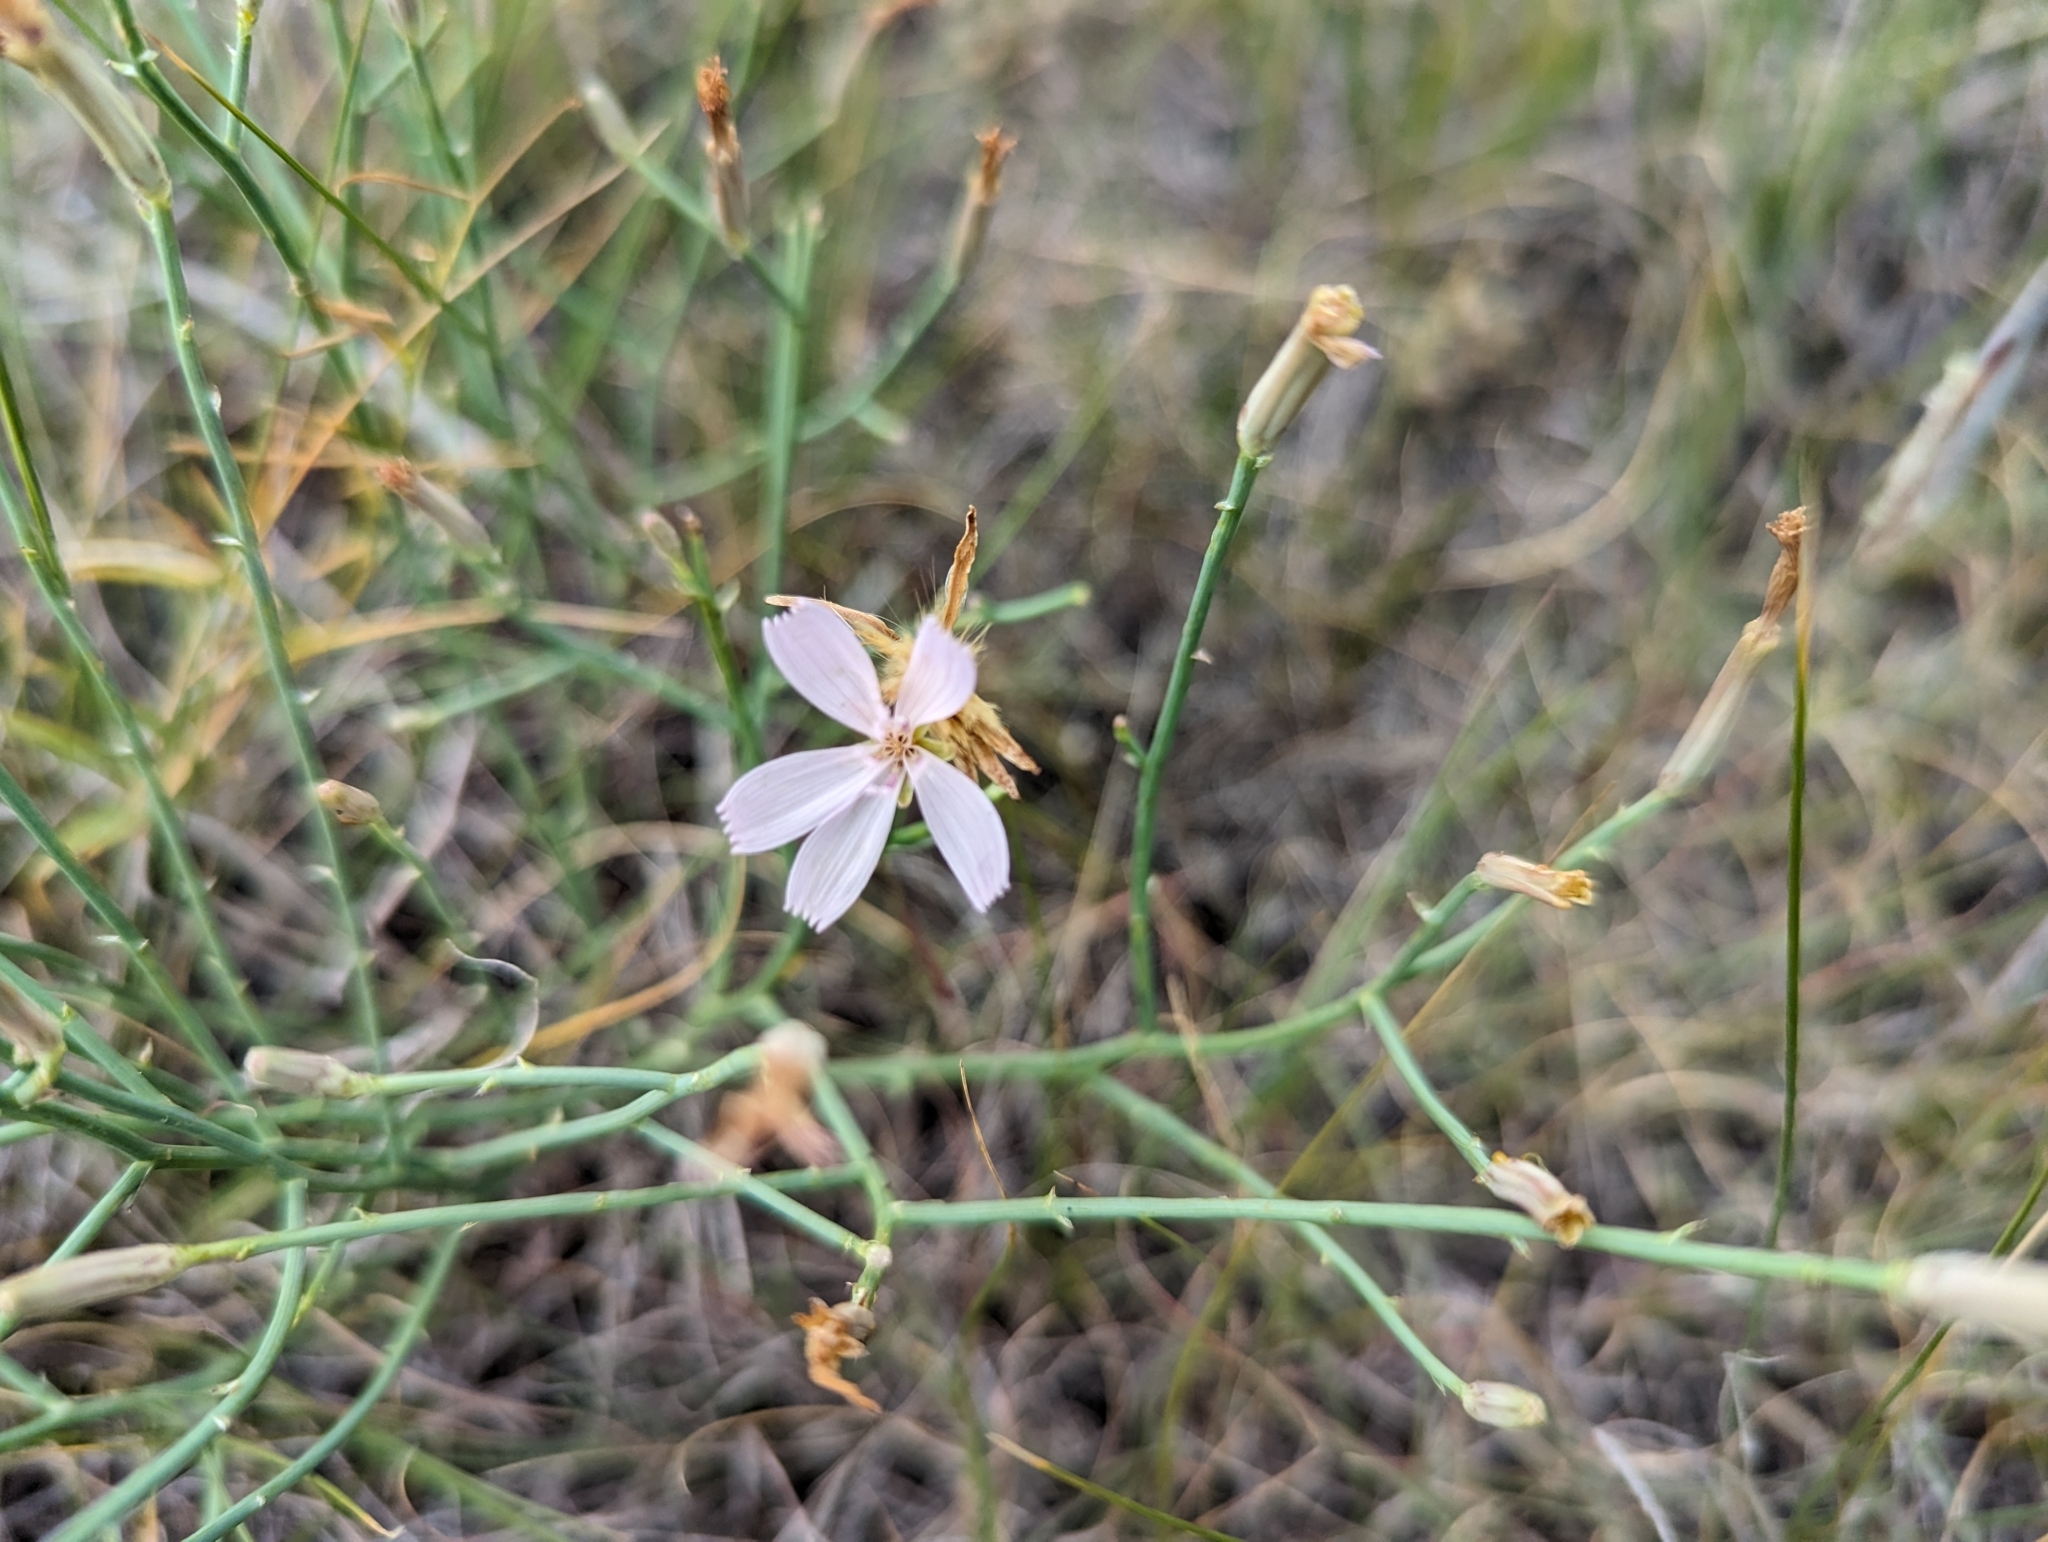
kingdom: Plantae
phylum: Tracheophyta
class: Magnoliopsida
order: Asterales
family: Asteraceae
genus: Lygodesmia
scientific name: Lygodesmia juncea
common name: Common skeletonweed
